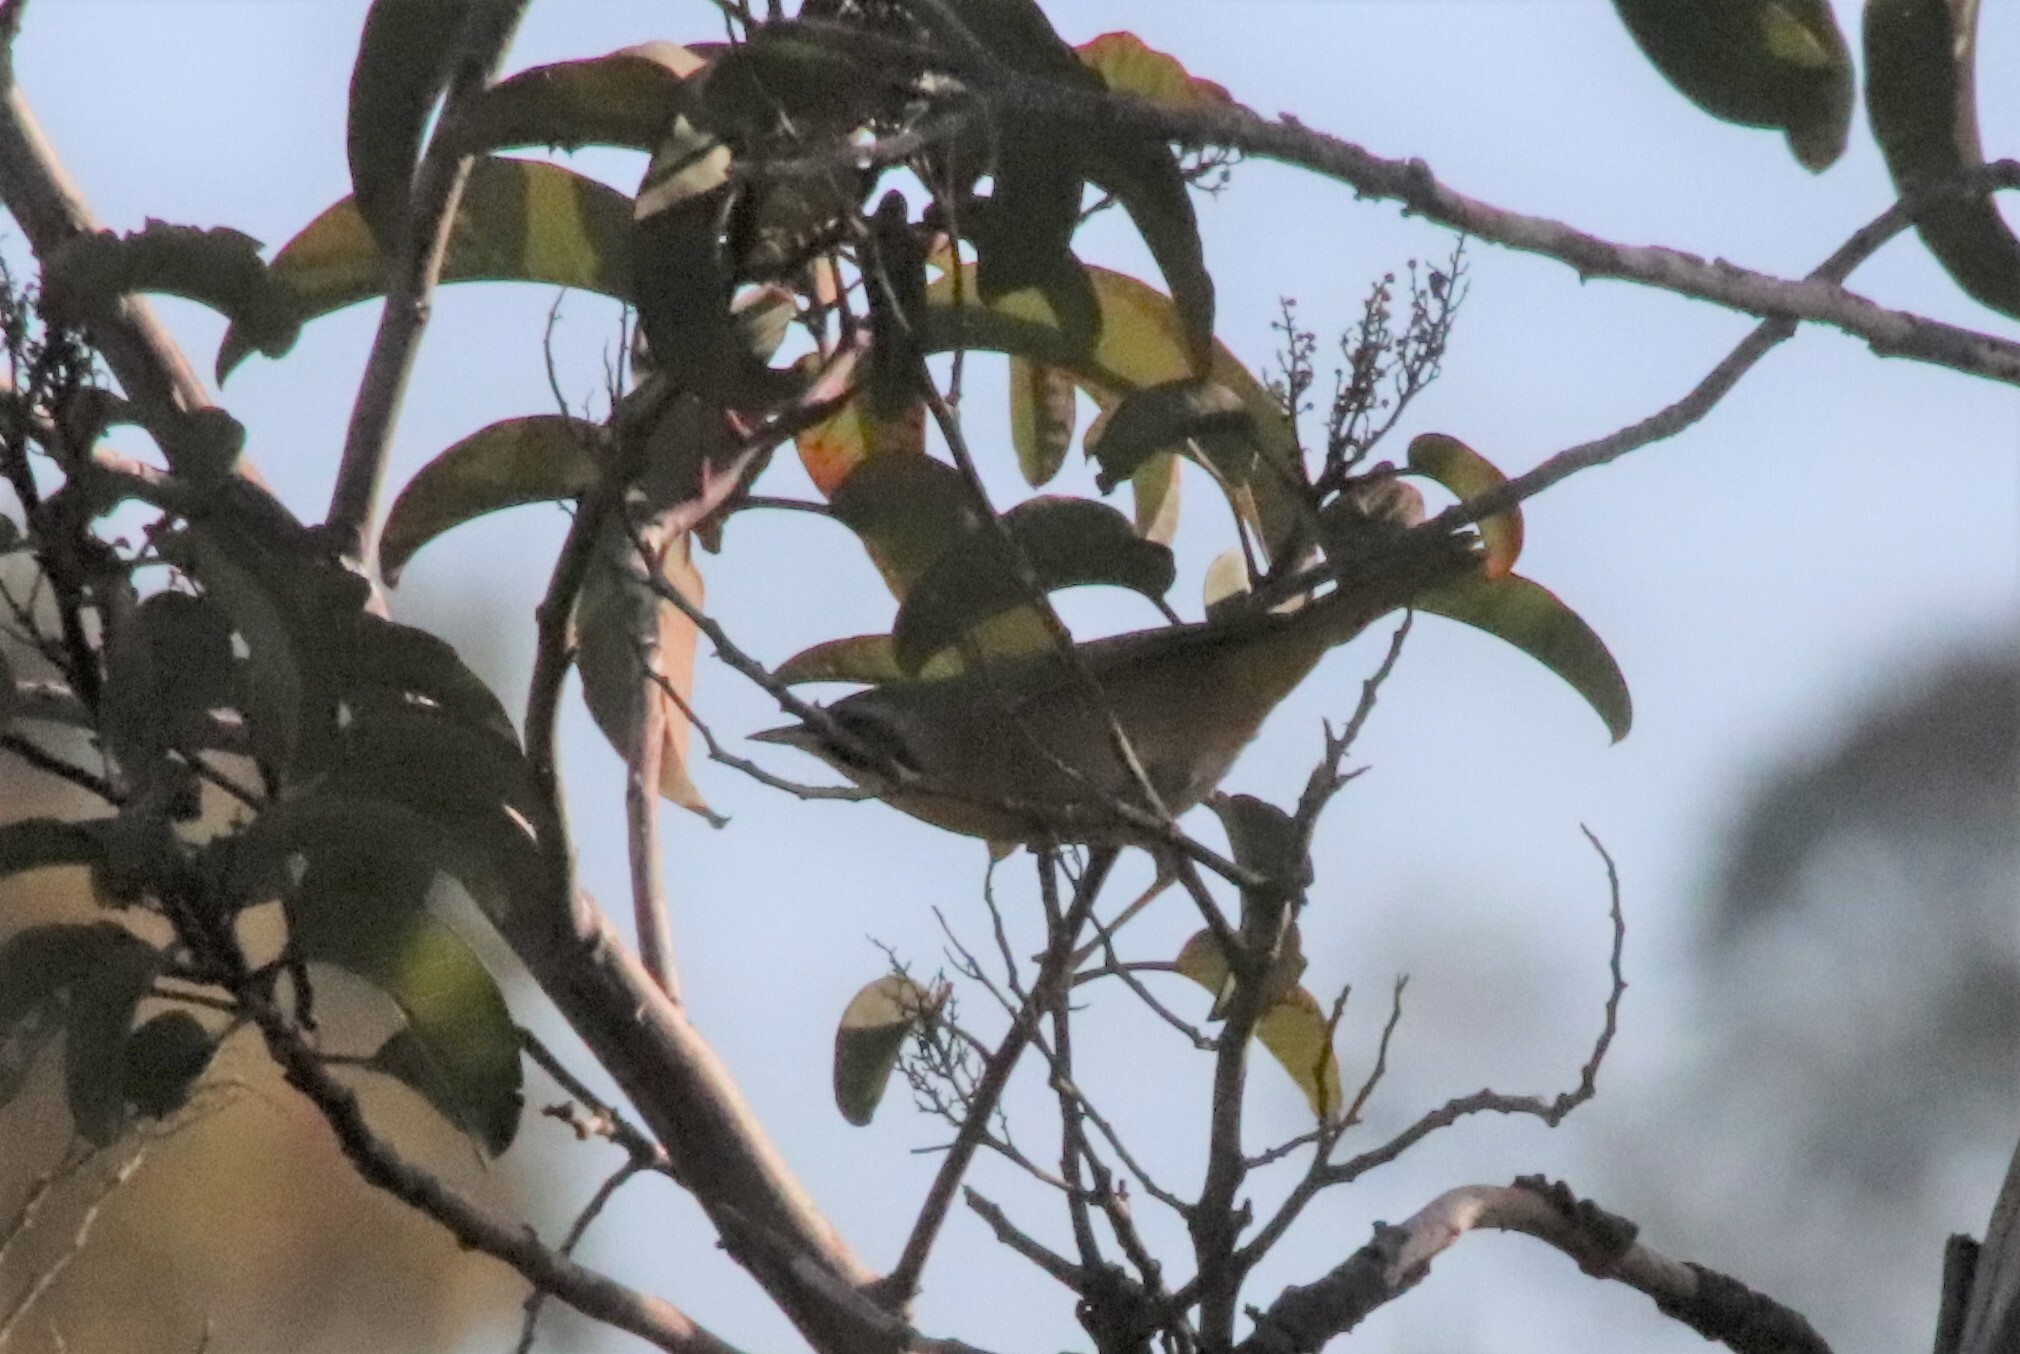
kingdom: Animalia
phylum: Chordata
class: Aves
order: Passeriformes
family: Parulidae
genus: Geothlypis
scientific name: Geothlypis trichas
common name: Common yellowthroat
